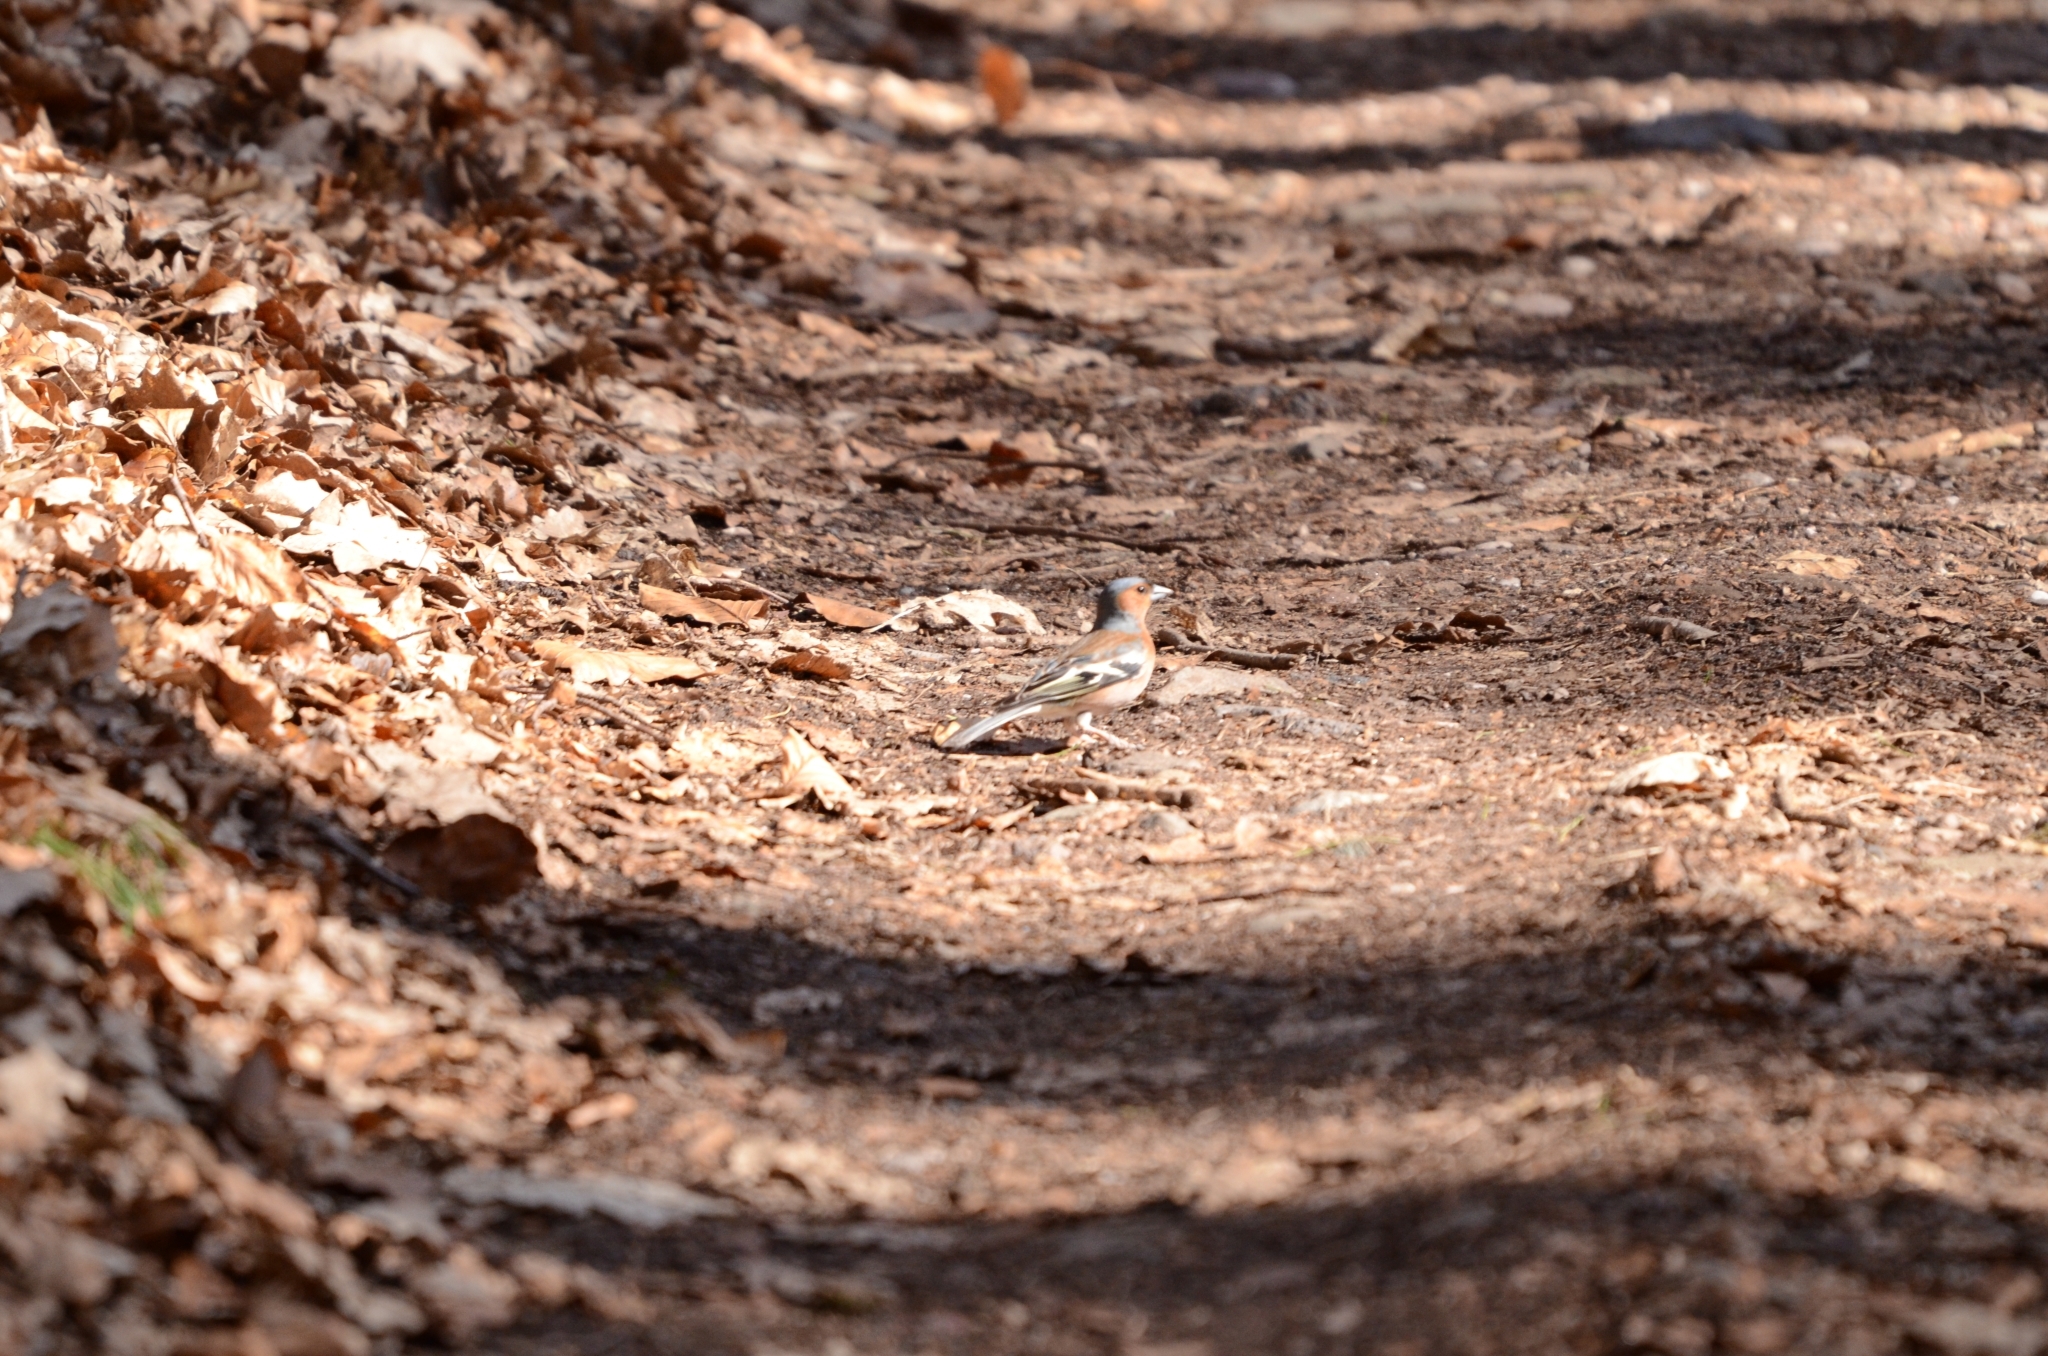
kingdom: Animalia
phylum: Chordata
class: Aves
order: Passeriformes
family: Fringillidae
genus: Fringilla
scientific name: Fringilla coelebs
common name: Common chaffinch
